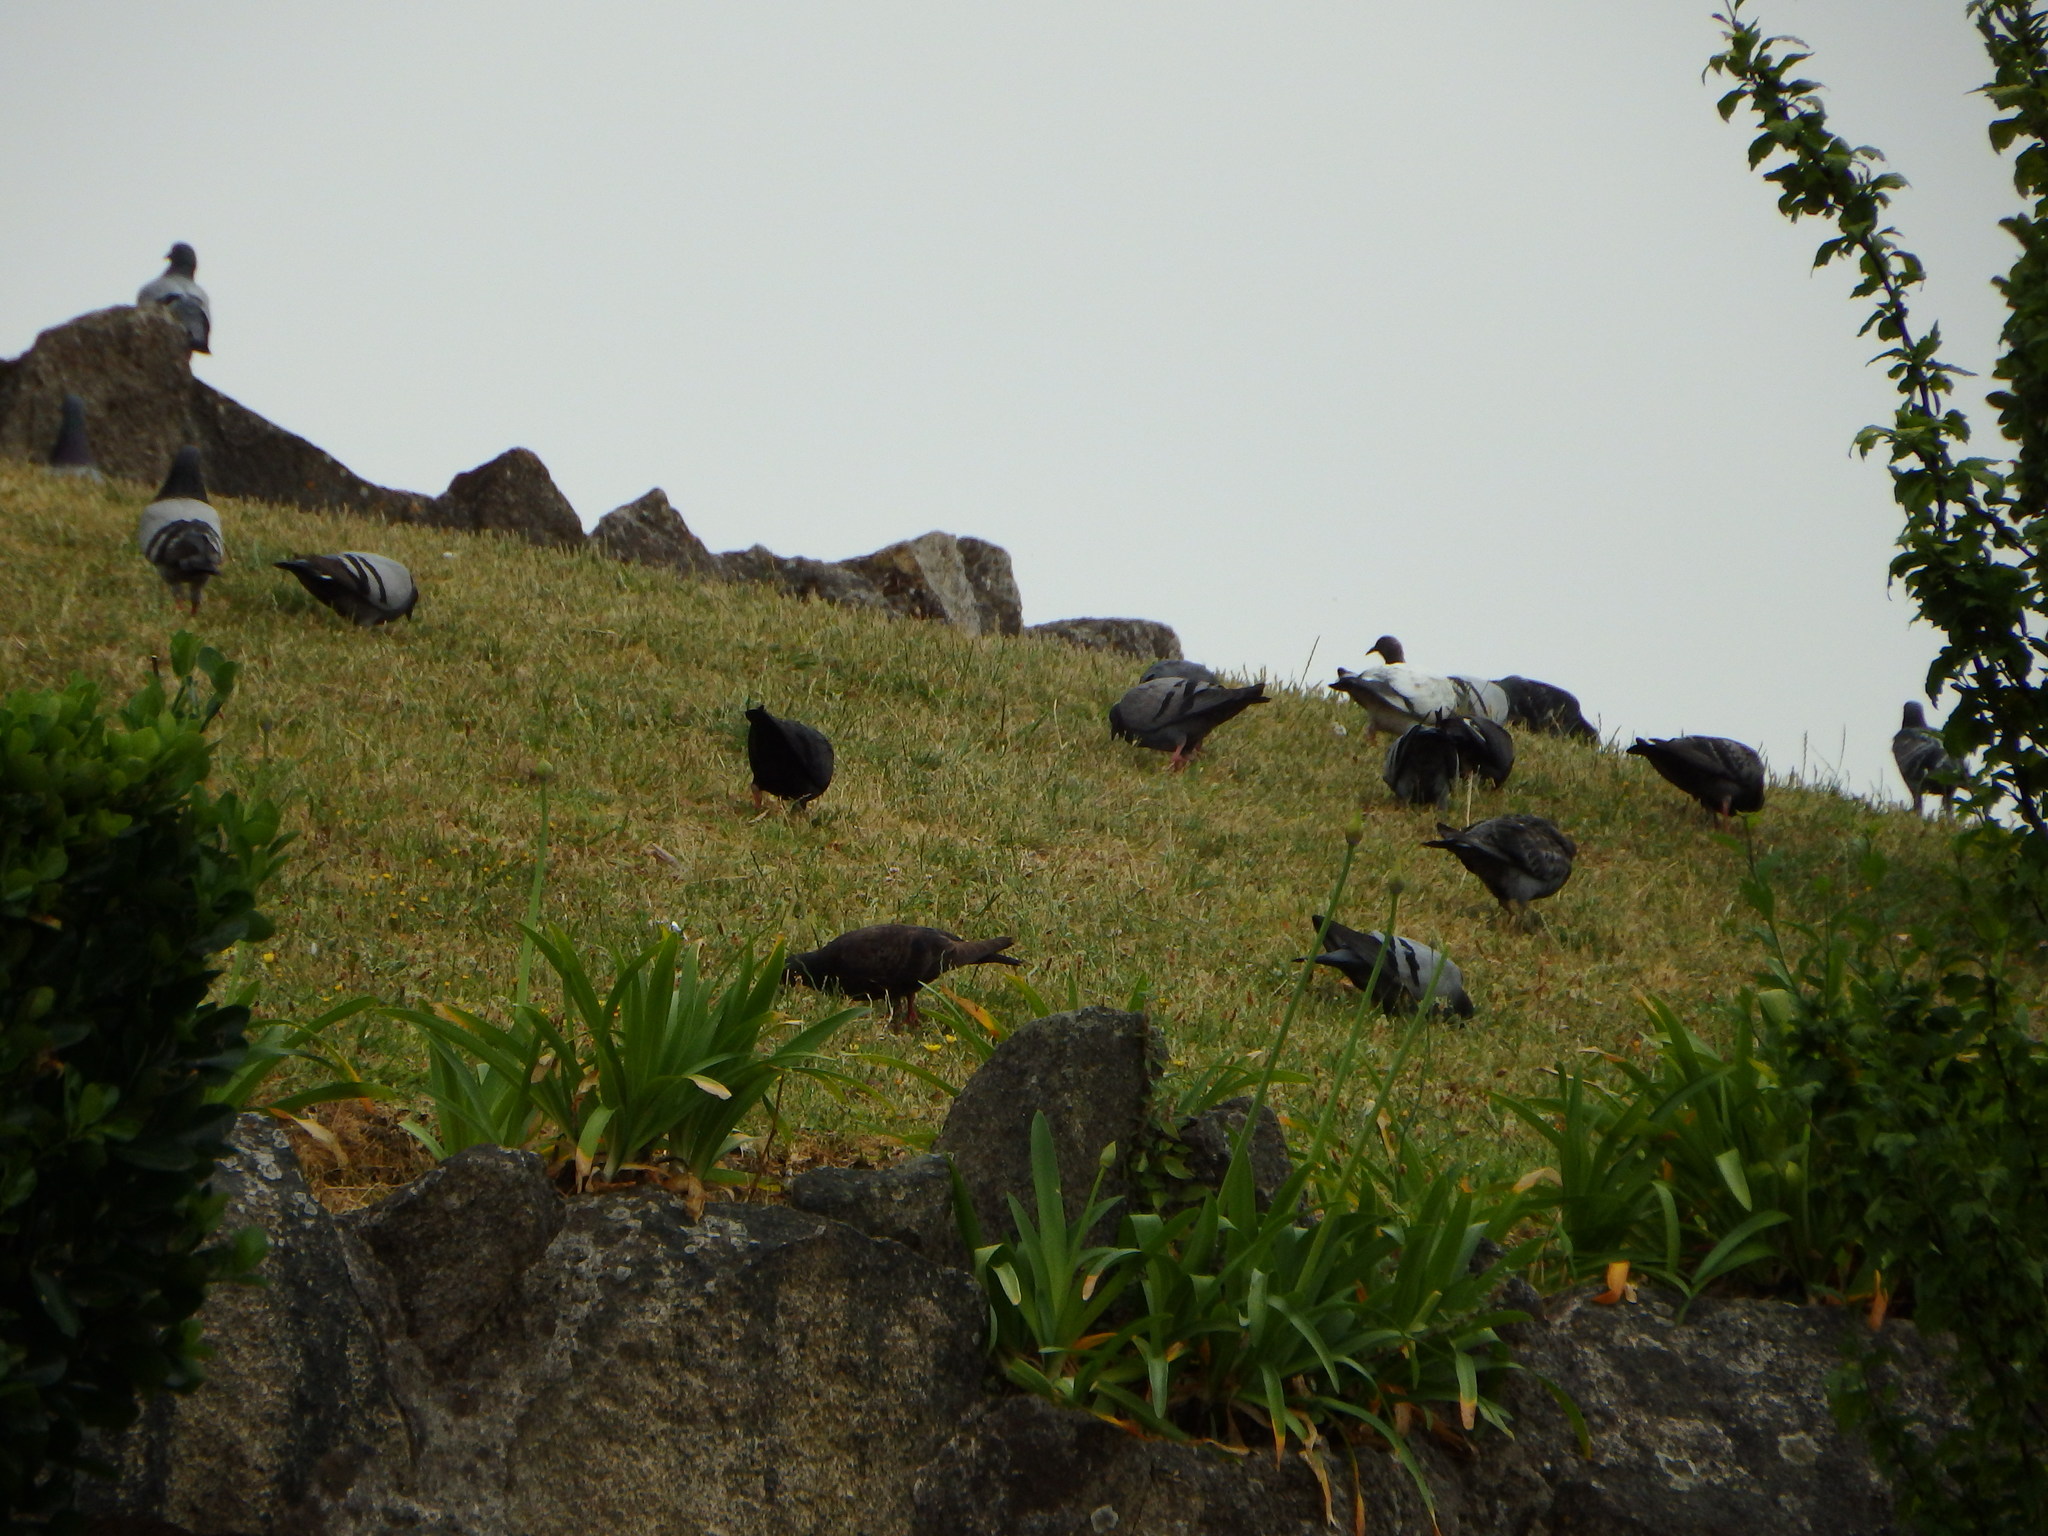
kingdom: Animalia
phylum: Chordata
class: Aves
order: Columbiformes
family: Columbidae
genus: Columba
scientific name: Columba livia
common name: Rock pigeon
